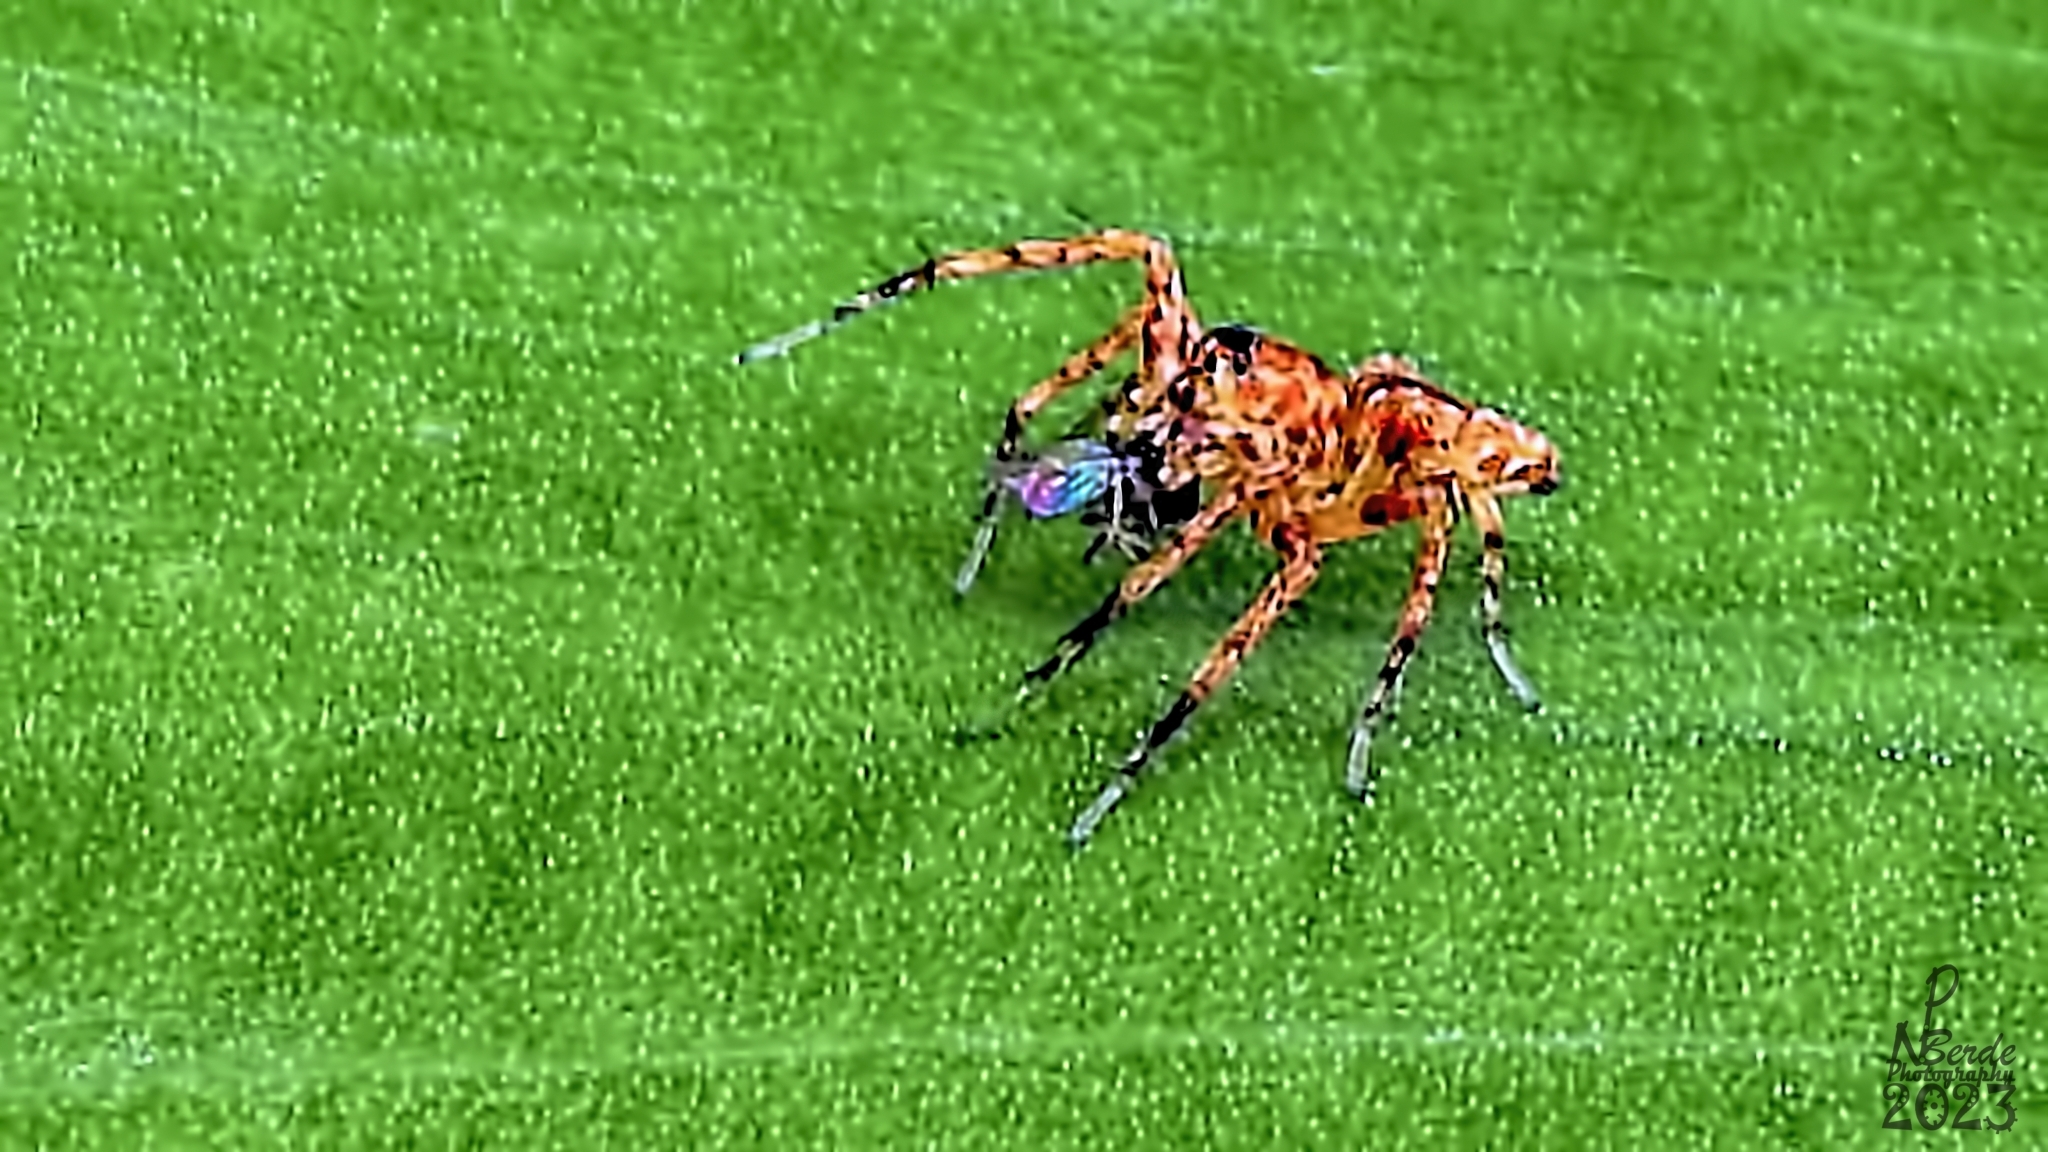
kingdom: Animalia
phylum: Arthropoda
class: Arachnida
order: Araneae
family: Oxyopidae
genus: Hamadruas
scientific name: Hamadruas hieroglyphica
